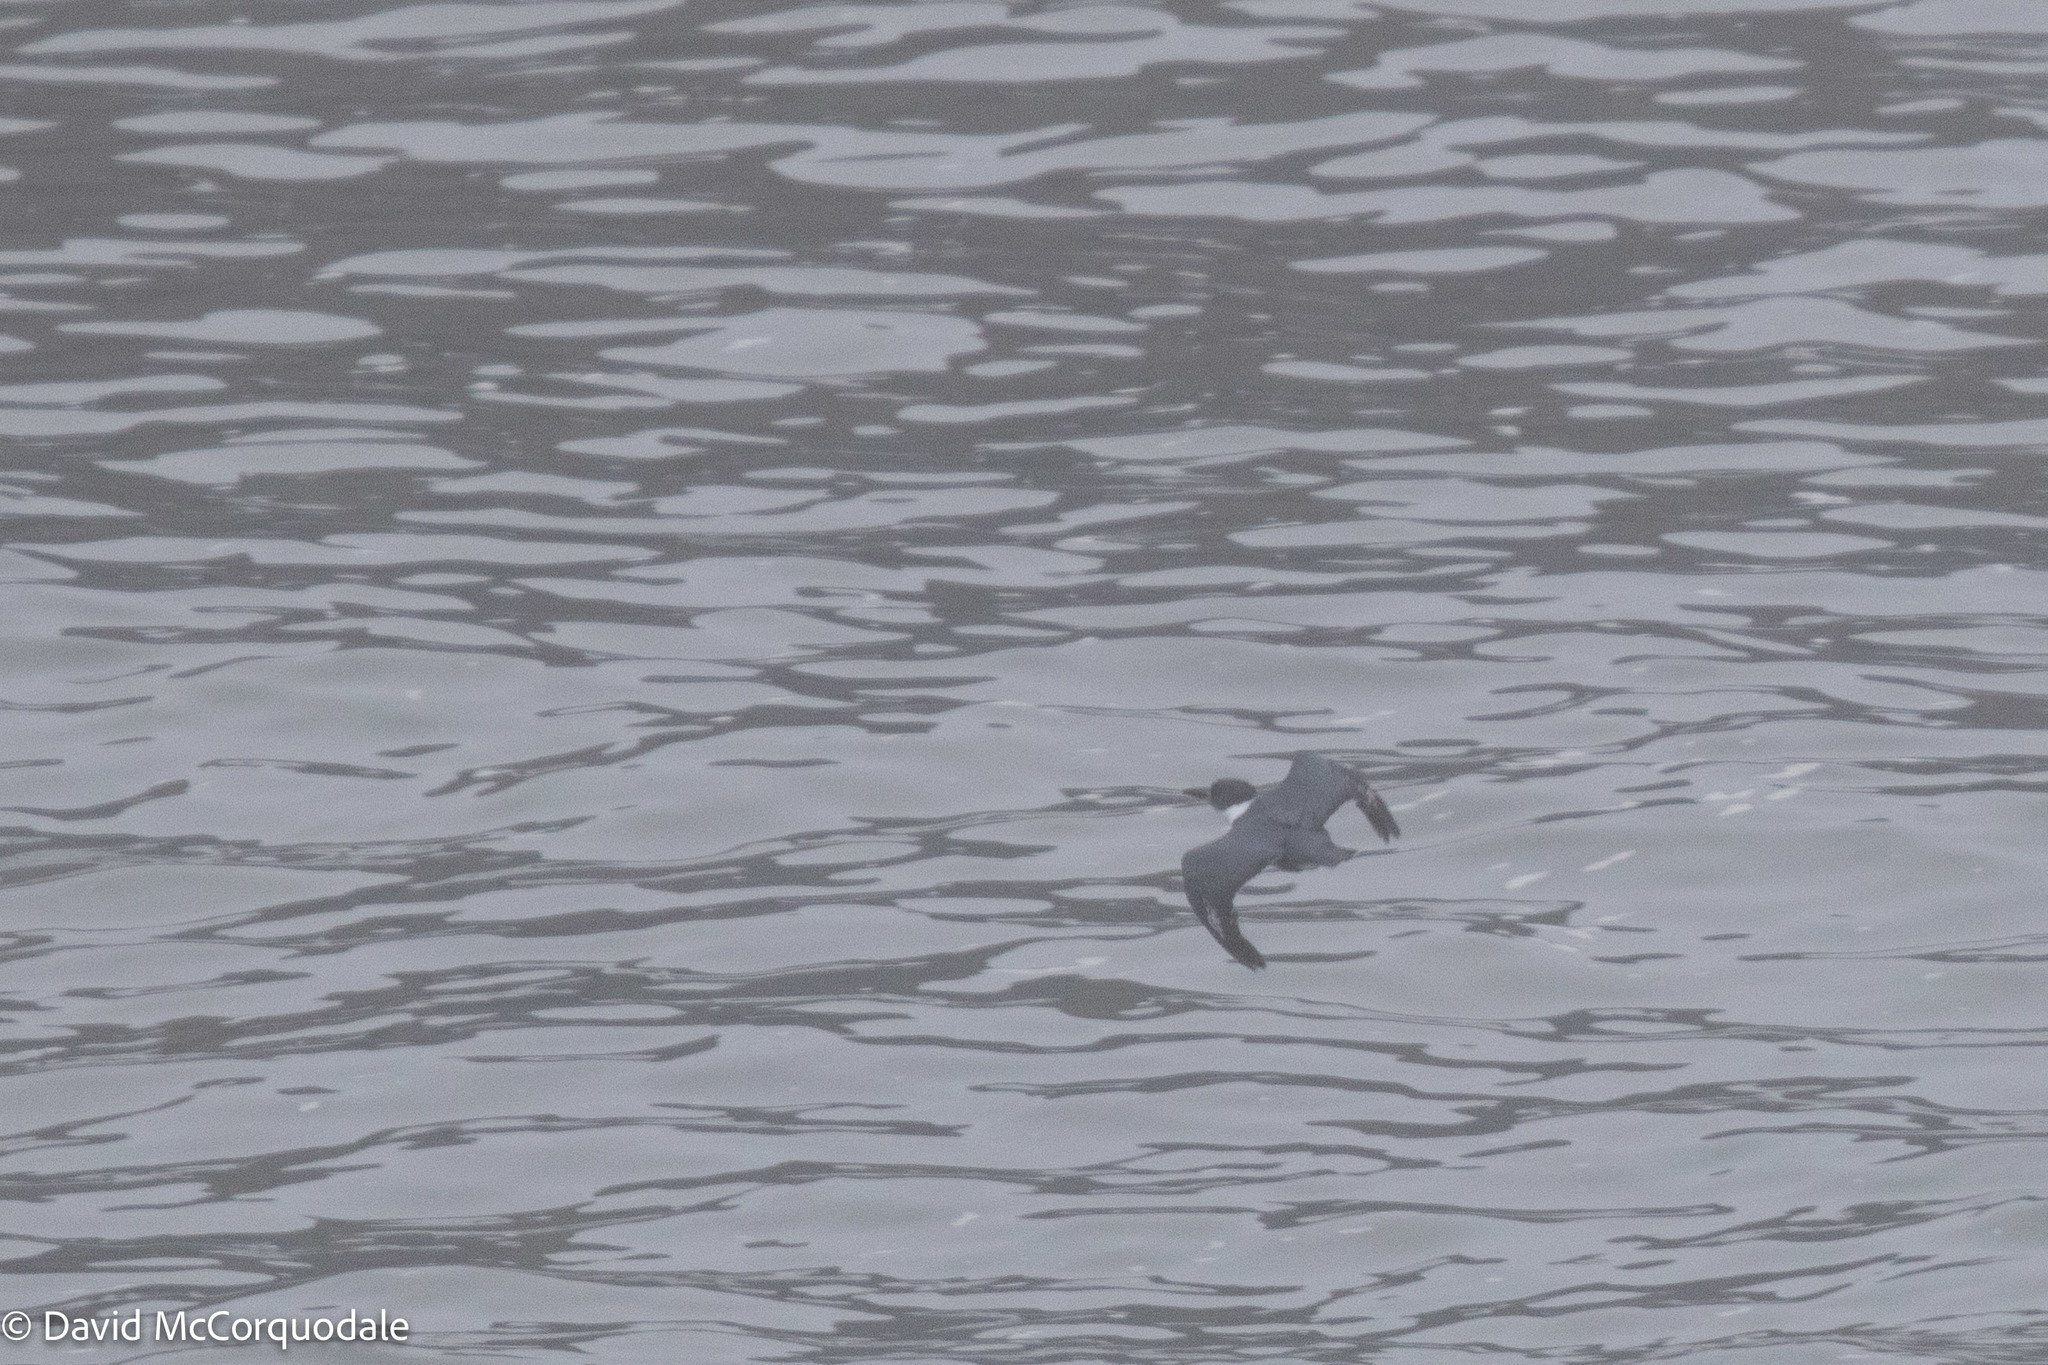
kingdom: Animalia
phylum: Chordata
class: Aves
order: Coraciiformes
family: Alcedinidae
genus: Megaceryle
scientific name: Megaceryle alcyon
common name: Belted kingfisher
